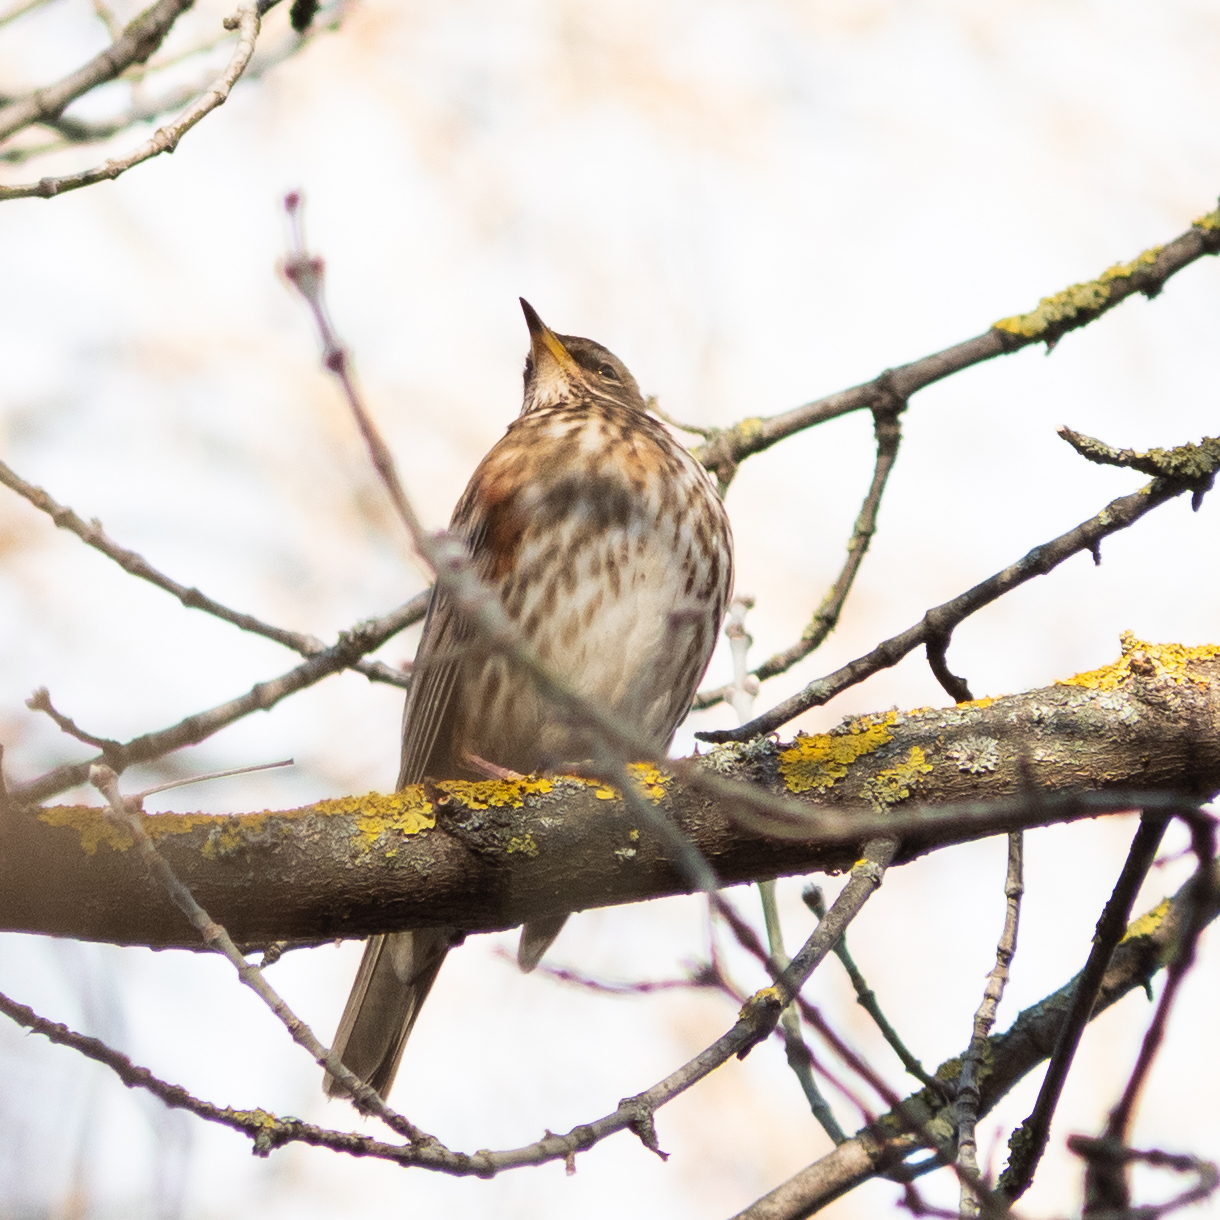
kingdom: Animalia
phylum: Chordata
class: Aves
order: Passeriformes
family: Turdidae
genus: Turdus
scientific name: Turdus iliacus
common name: Redwing
